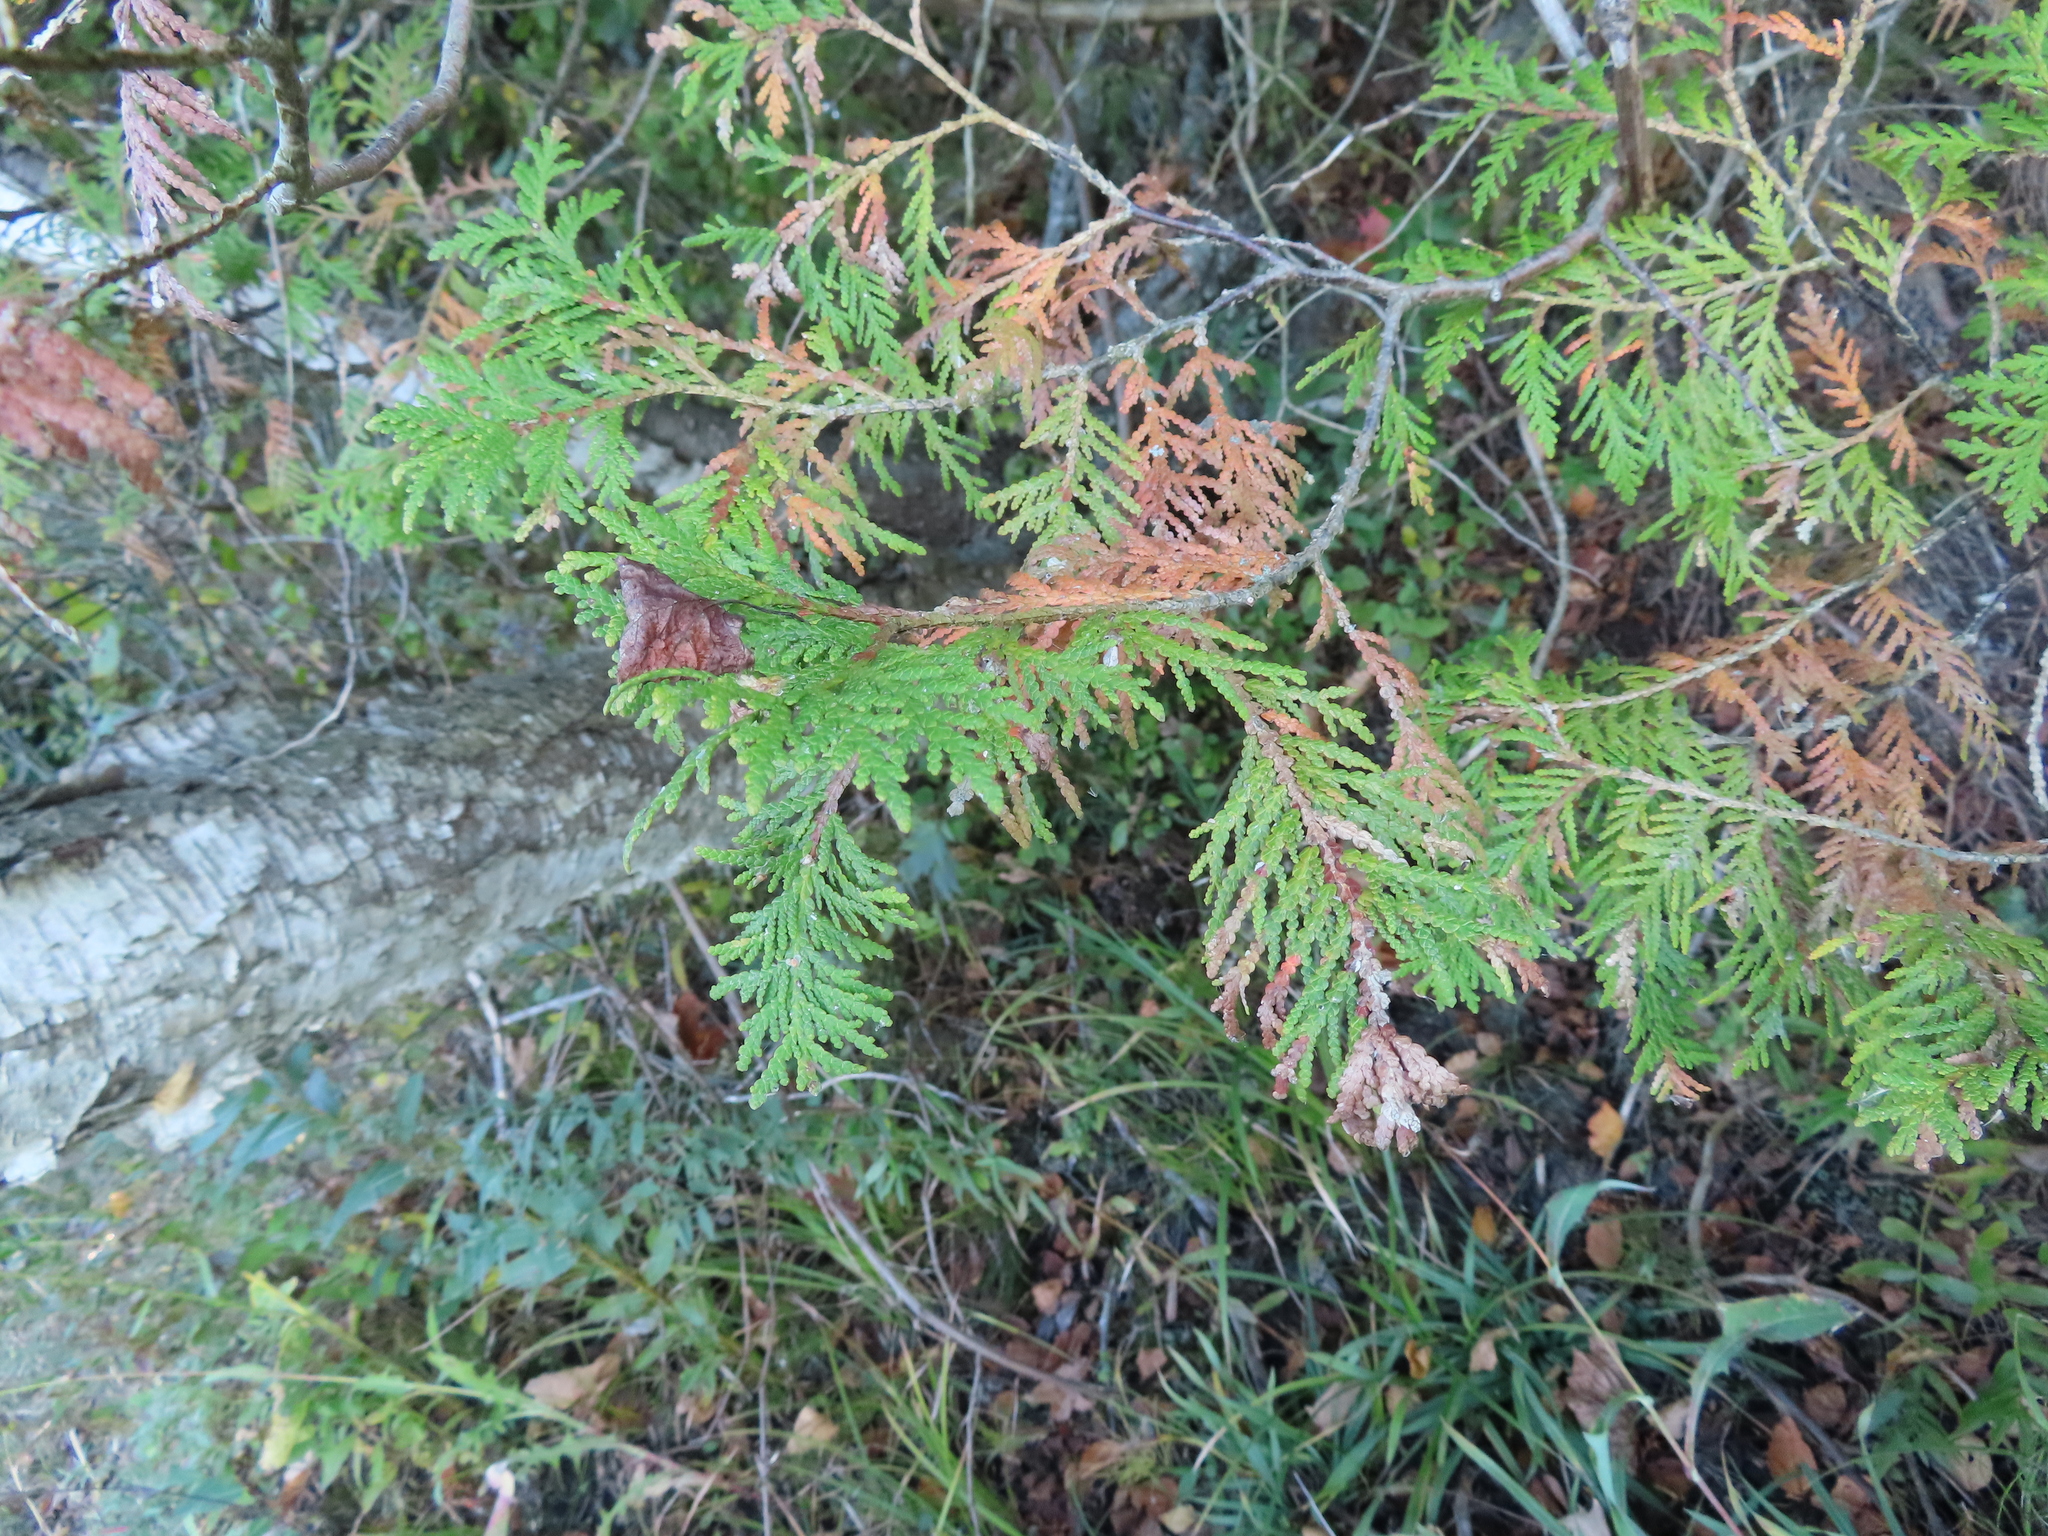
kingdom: Plantae
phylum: Tracheophyta
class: Pinopsida
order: Pinales
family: Cupressaceae
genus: Thuja
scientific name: Thuja occidentalis
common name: Northern white-cedar
